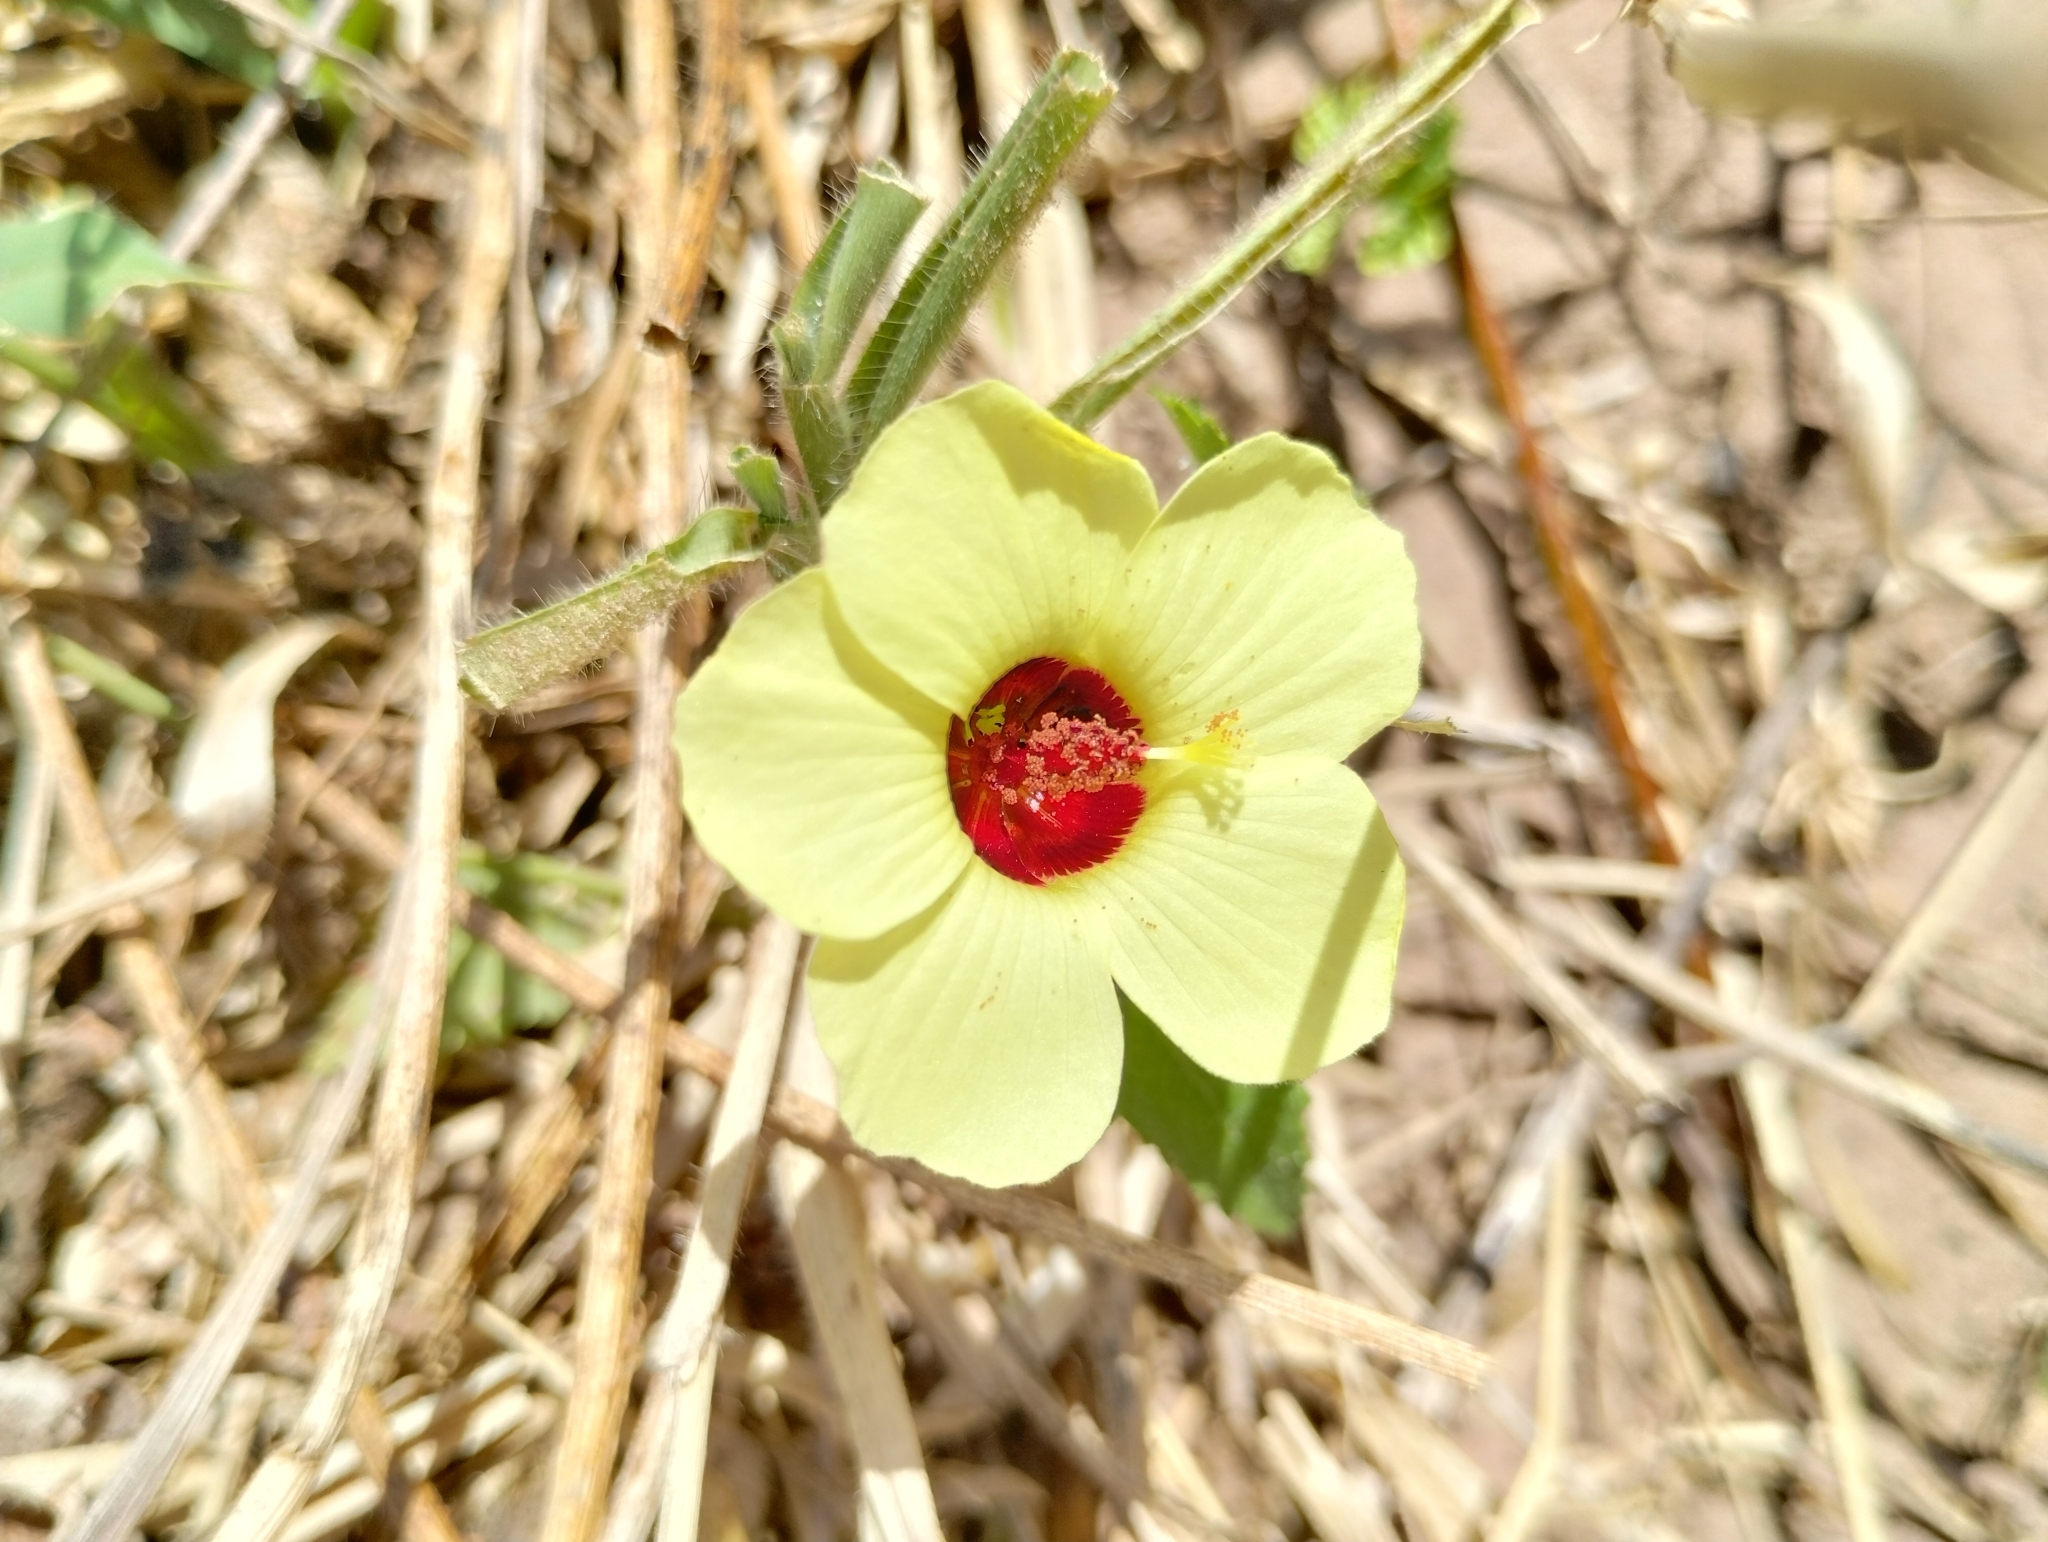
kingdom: Plantae
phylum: Tracheophyta
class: Magnoliopsida
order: Malvales
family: Malvaceae
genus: Pavonia
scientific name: Pavonia cancellata
